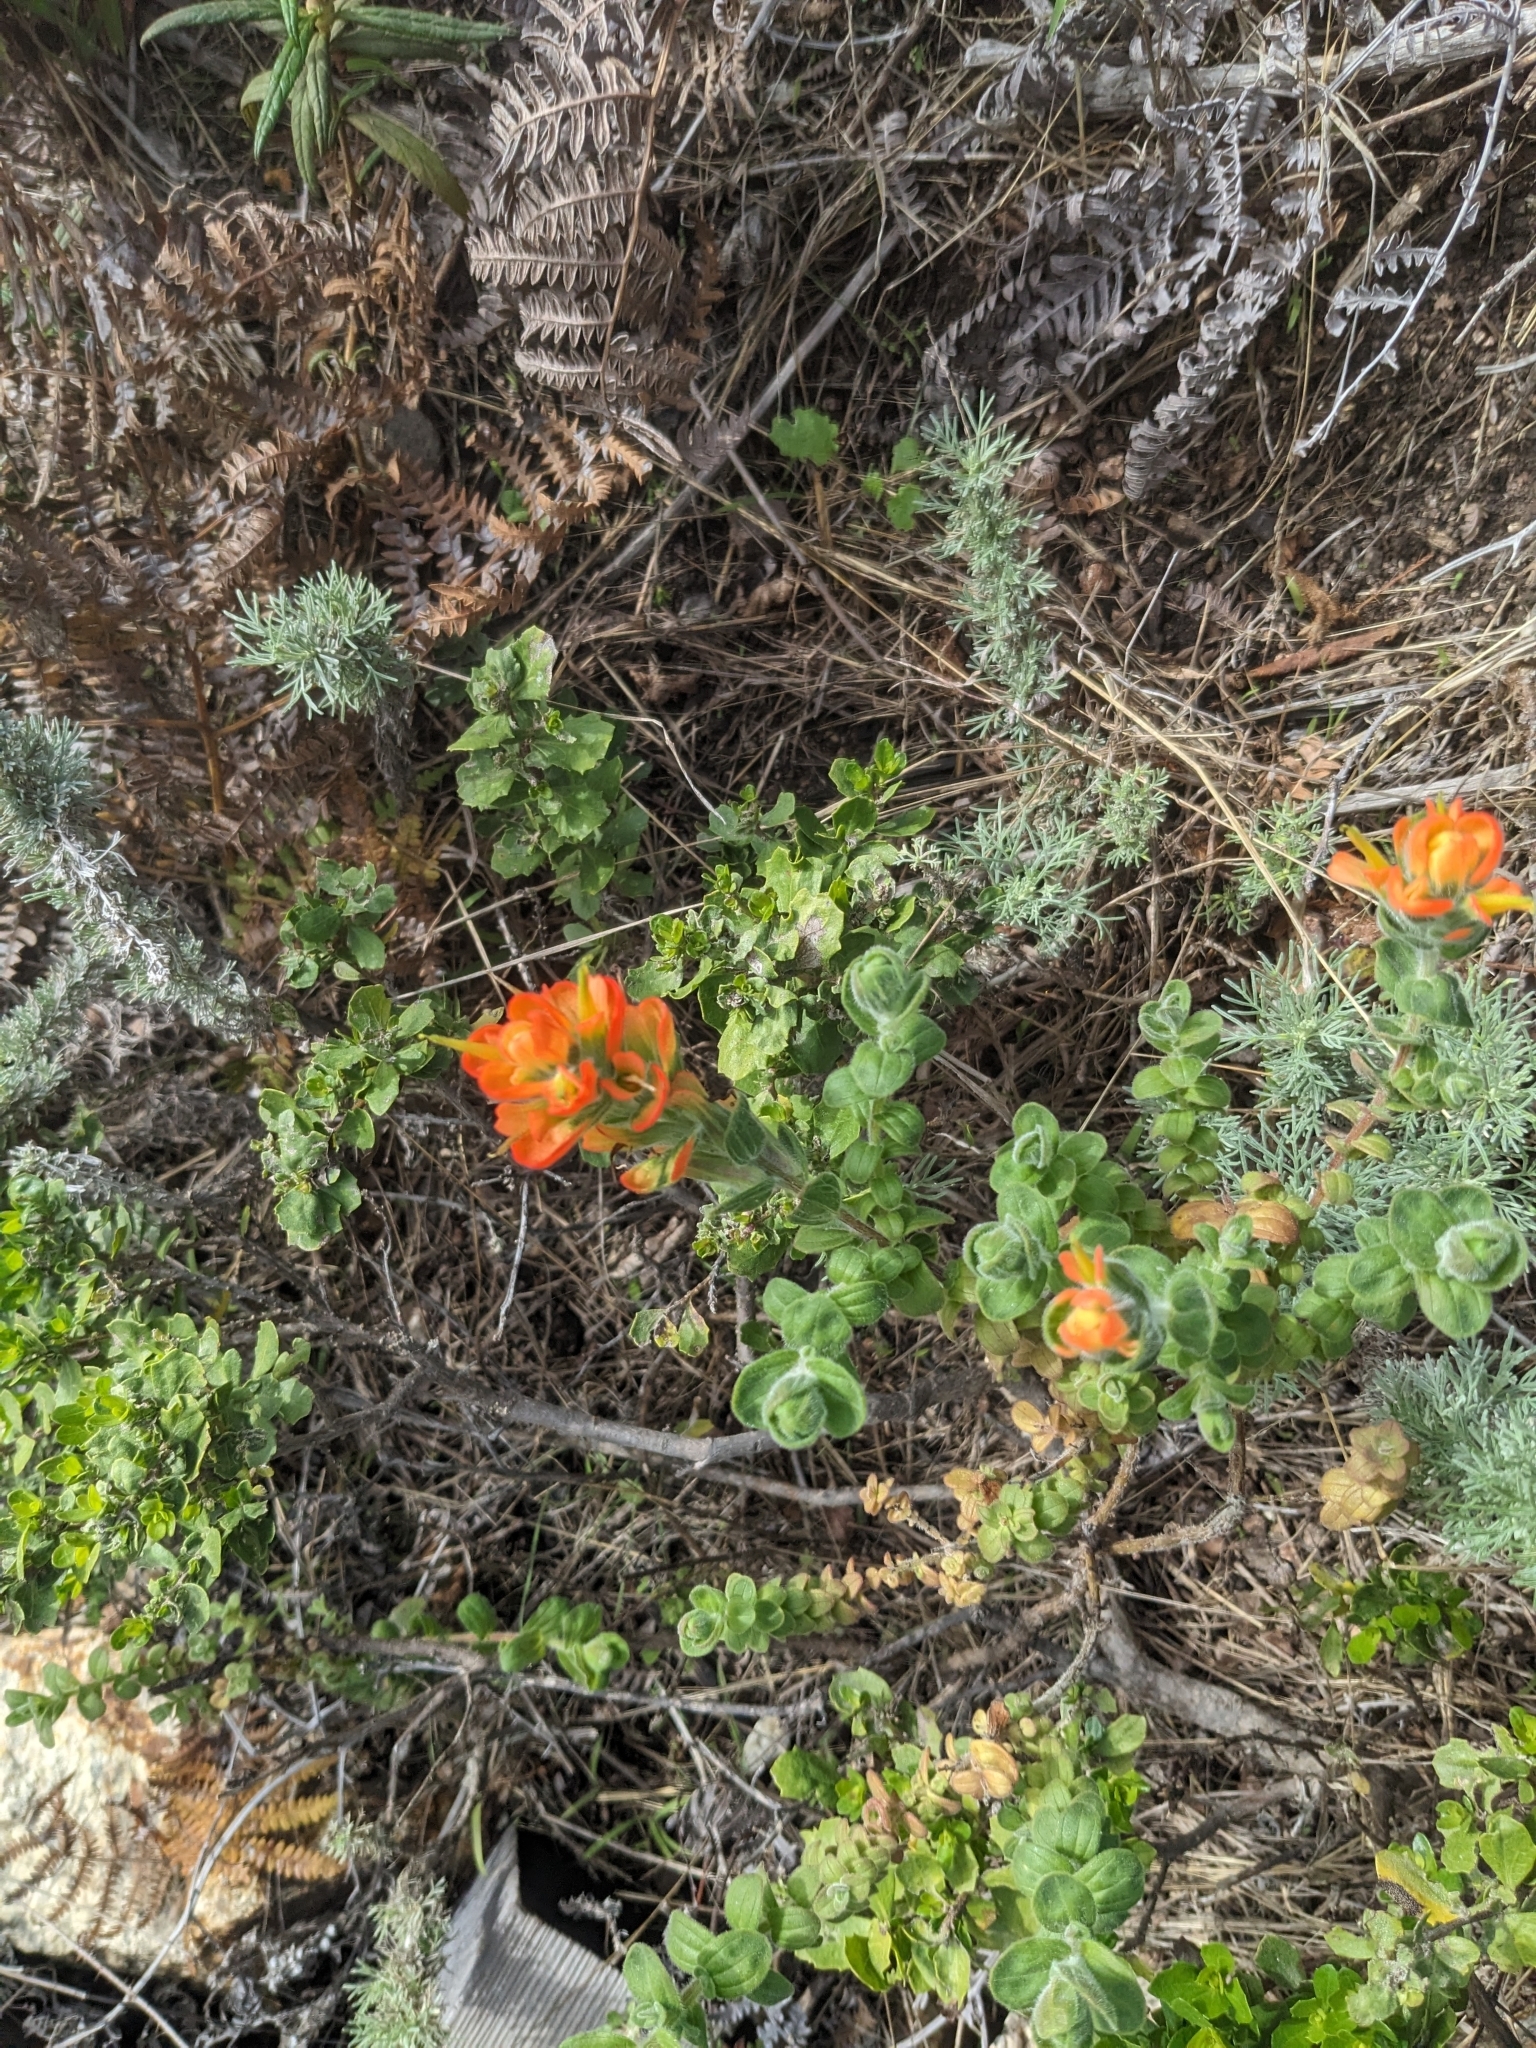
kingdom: Plantae
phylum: Tracheophyta
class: Magnoliopsida
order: Lamiales
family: Orobanchaceae
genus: Castilleja
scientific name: Castilleja latifolia
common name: Monterey indian paintbrush
